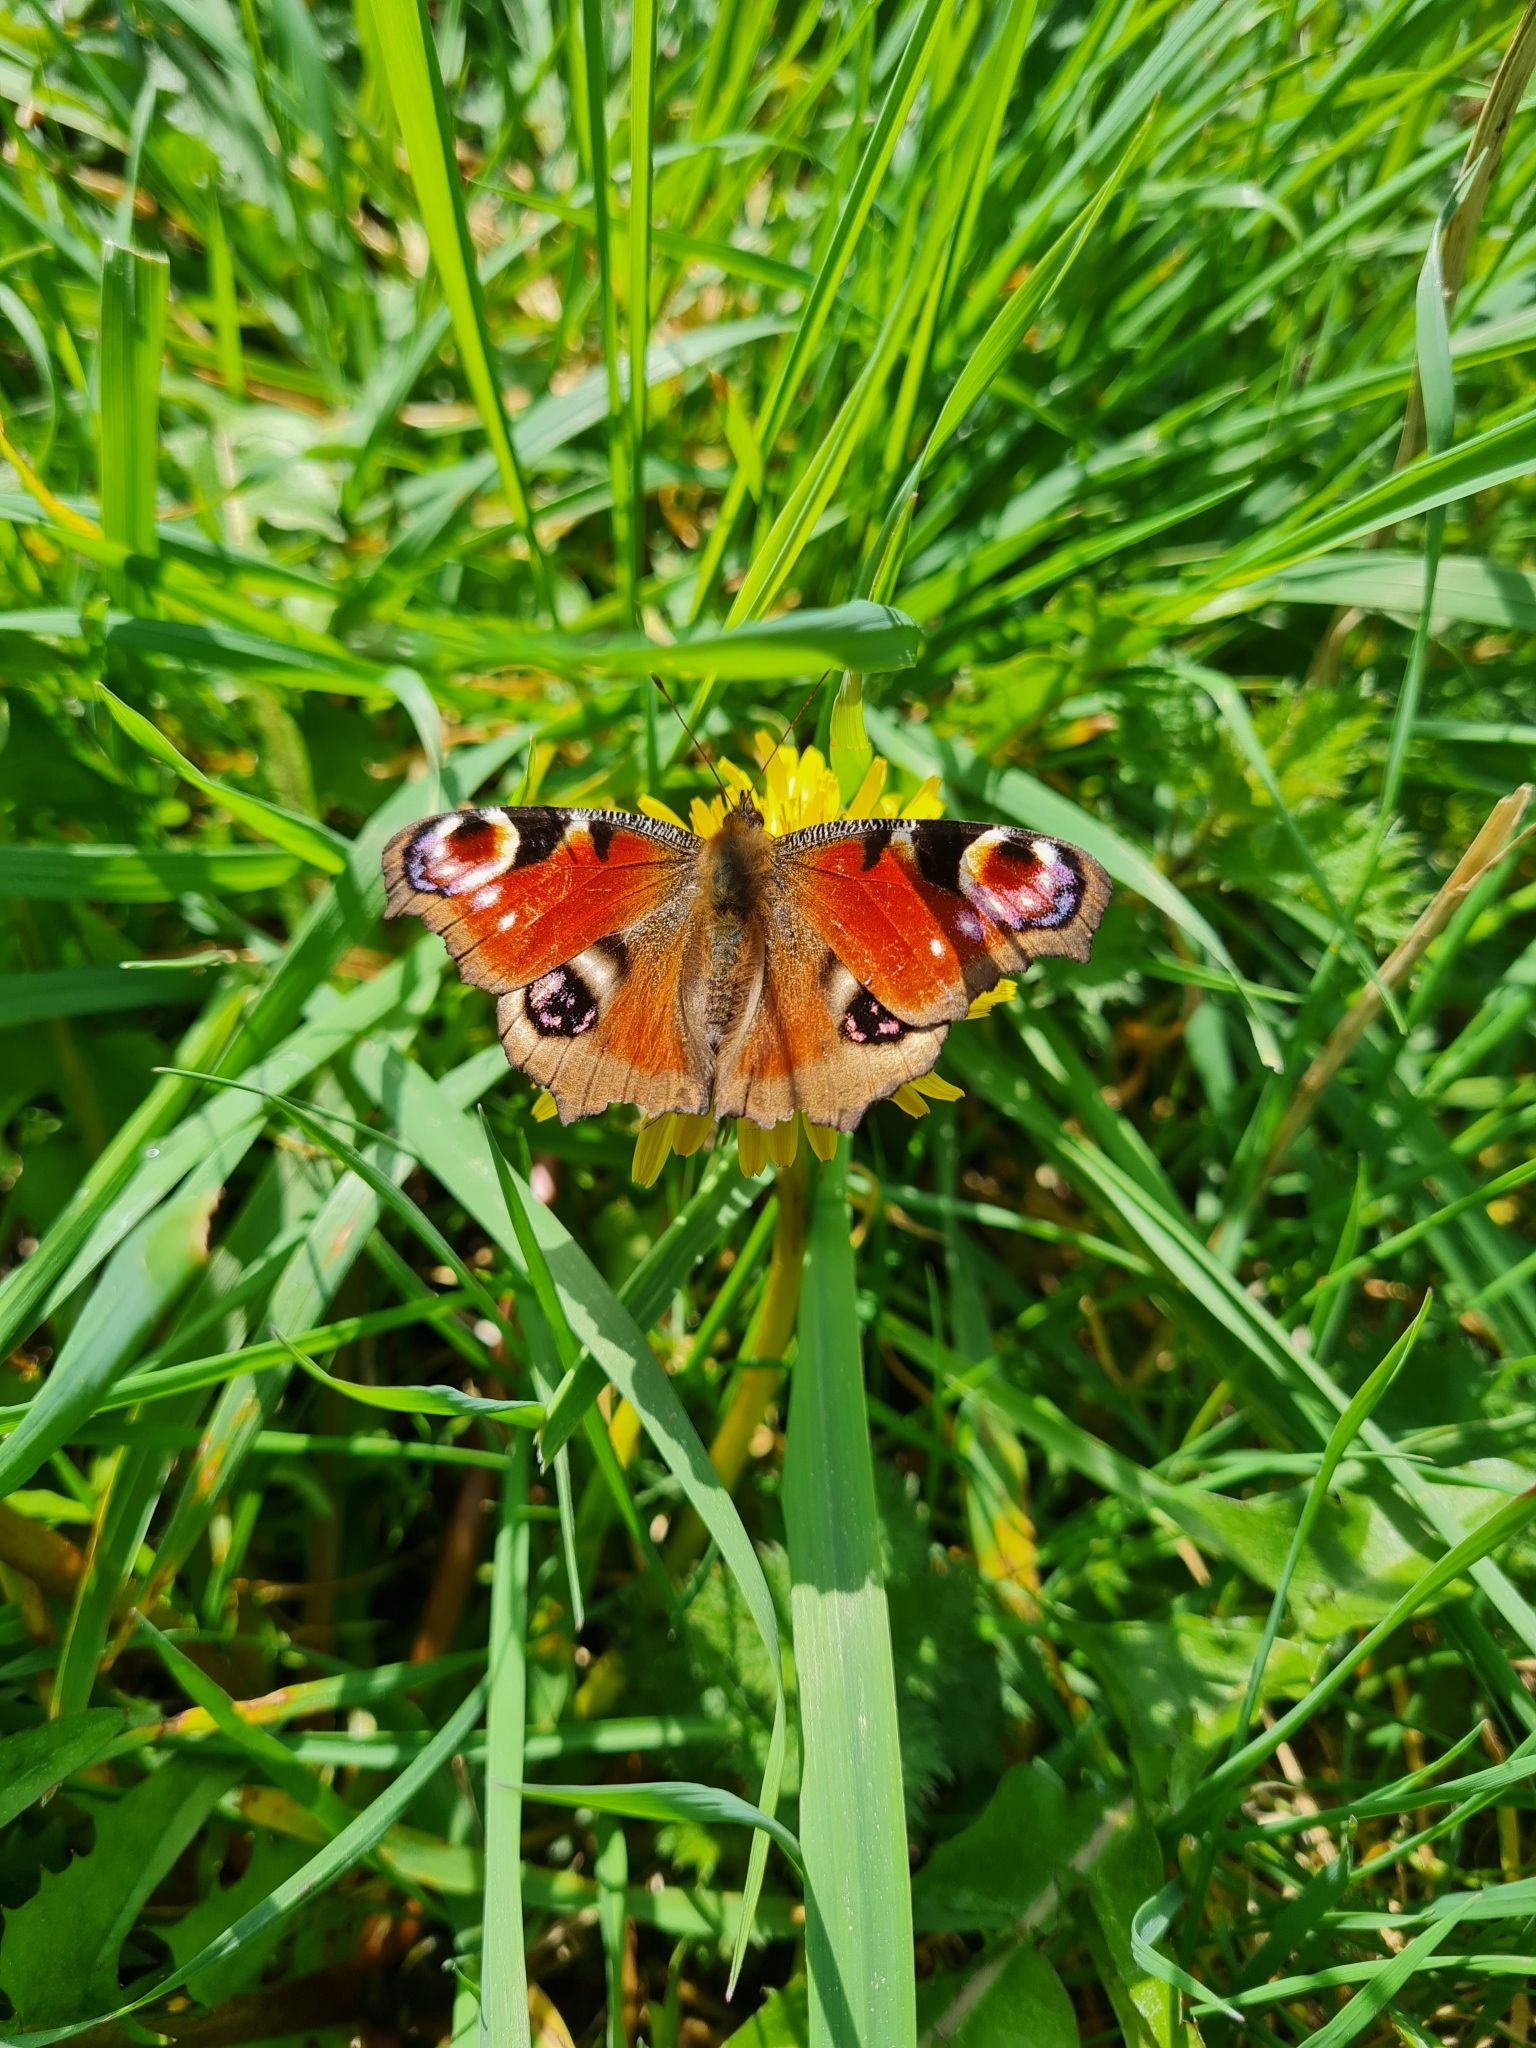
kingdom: Animalia
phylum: Arthropoda
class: Insecta
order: Lepidoptera
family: Nymphalidae
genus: Aglais
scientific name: Aglais io
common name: Peacock
